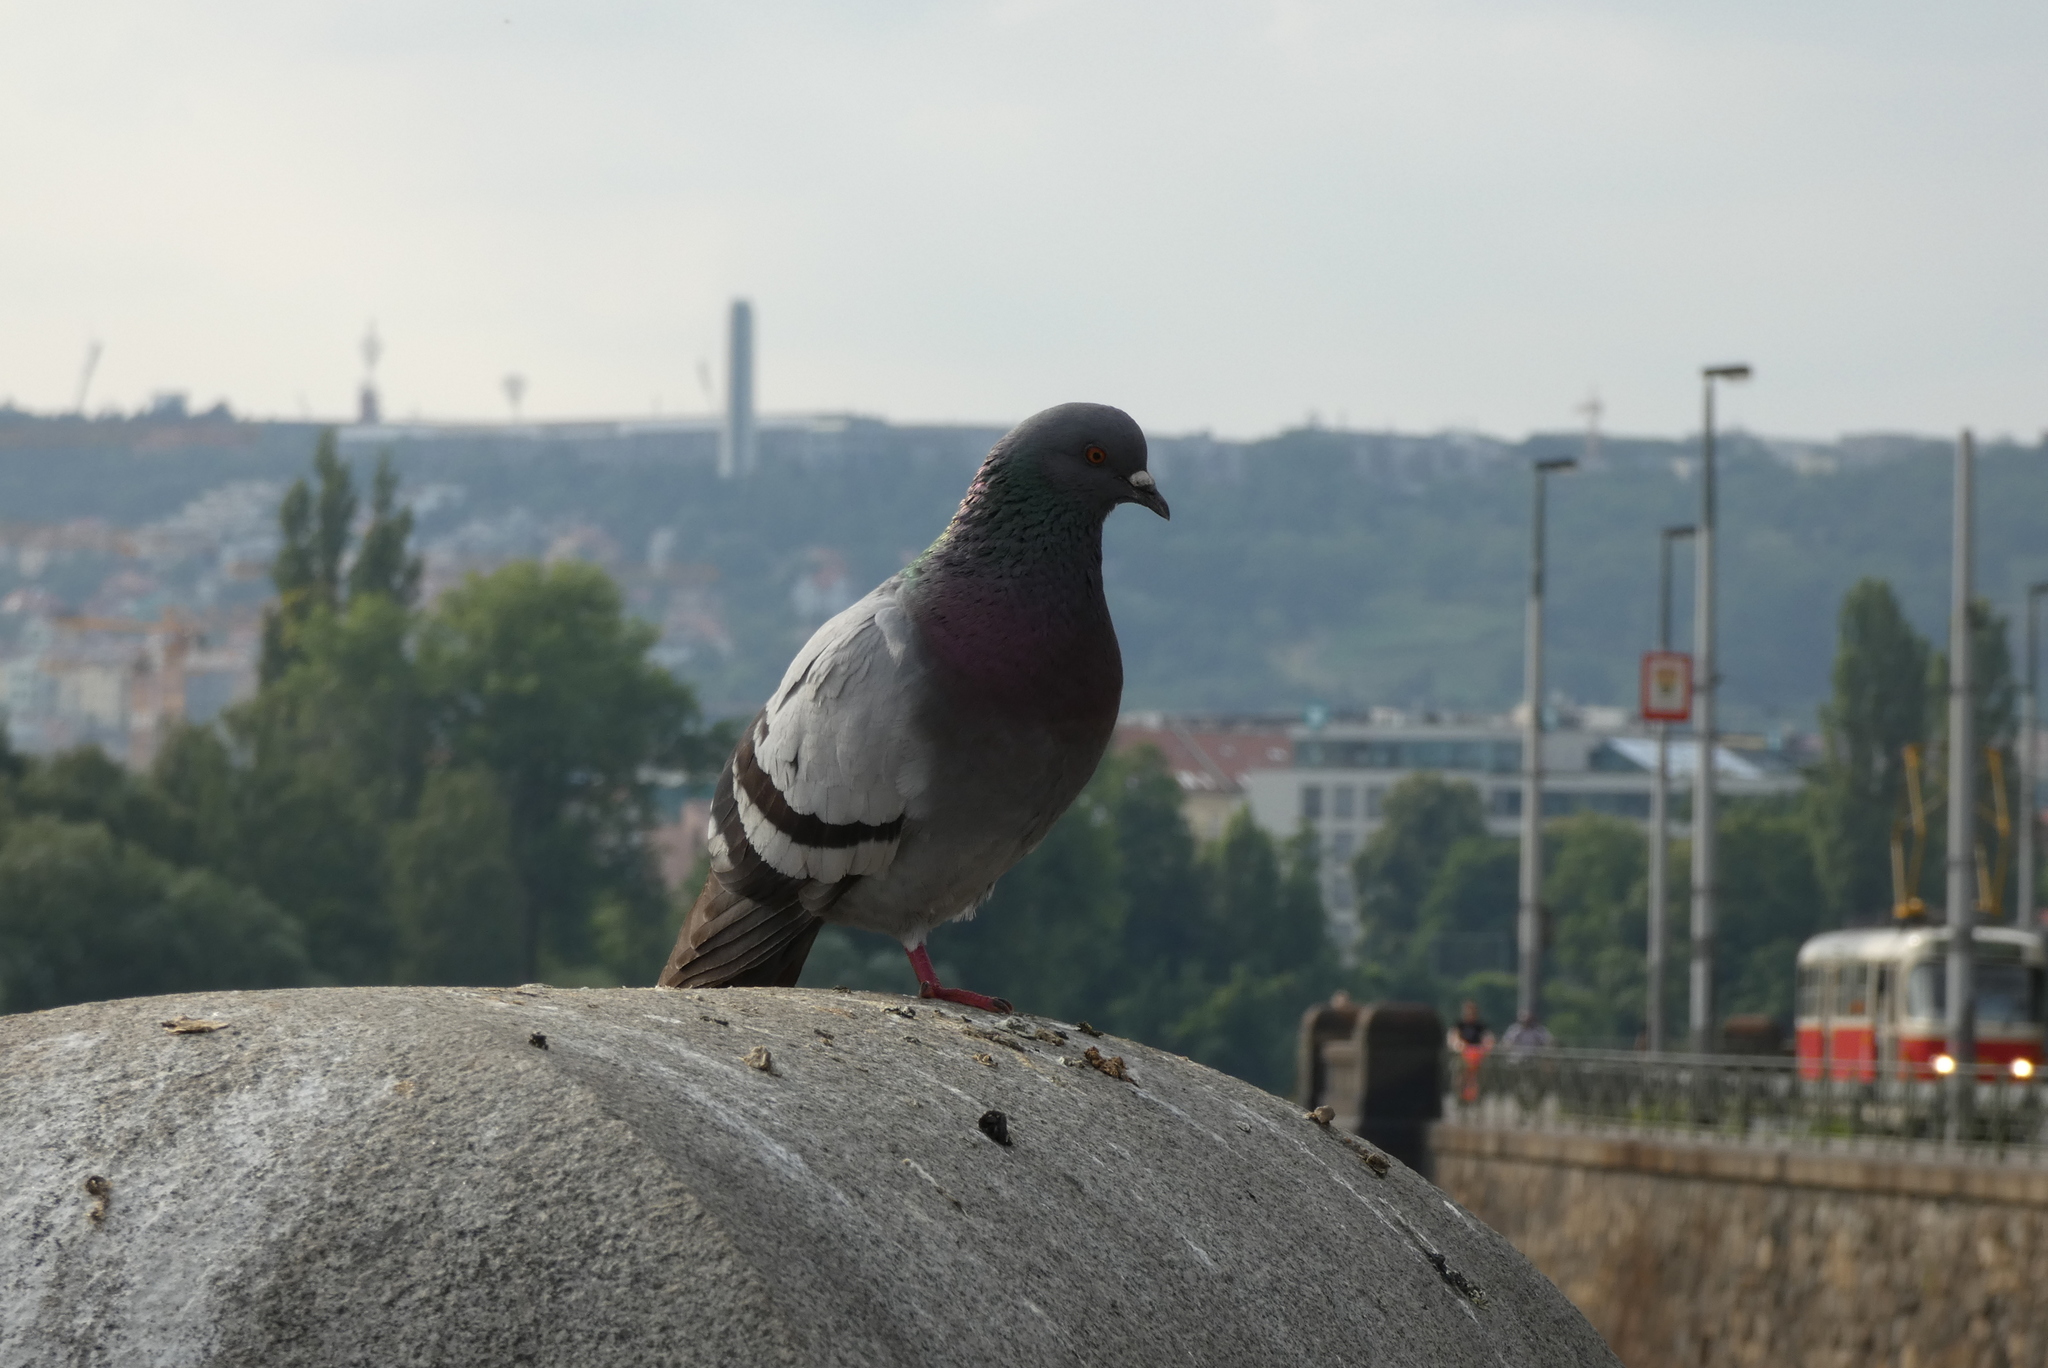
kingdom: Animalia
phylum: Chordata
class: Aves
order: Columbiformes
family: Columbidae
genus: Columba
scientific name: Columba livia
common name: Rock pigeon
